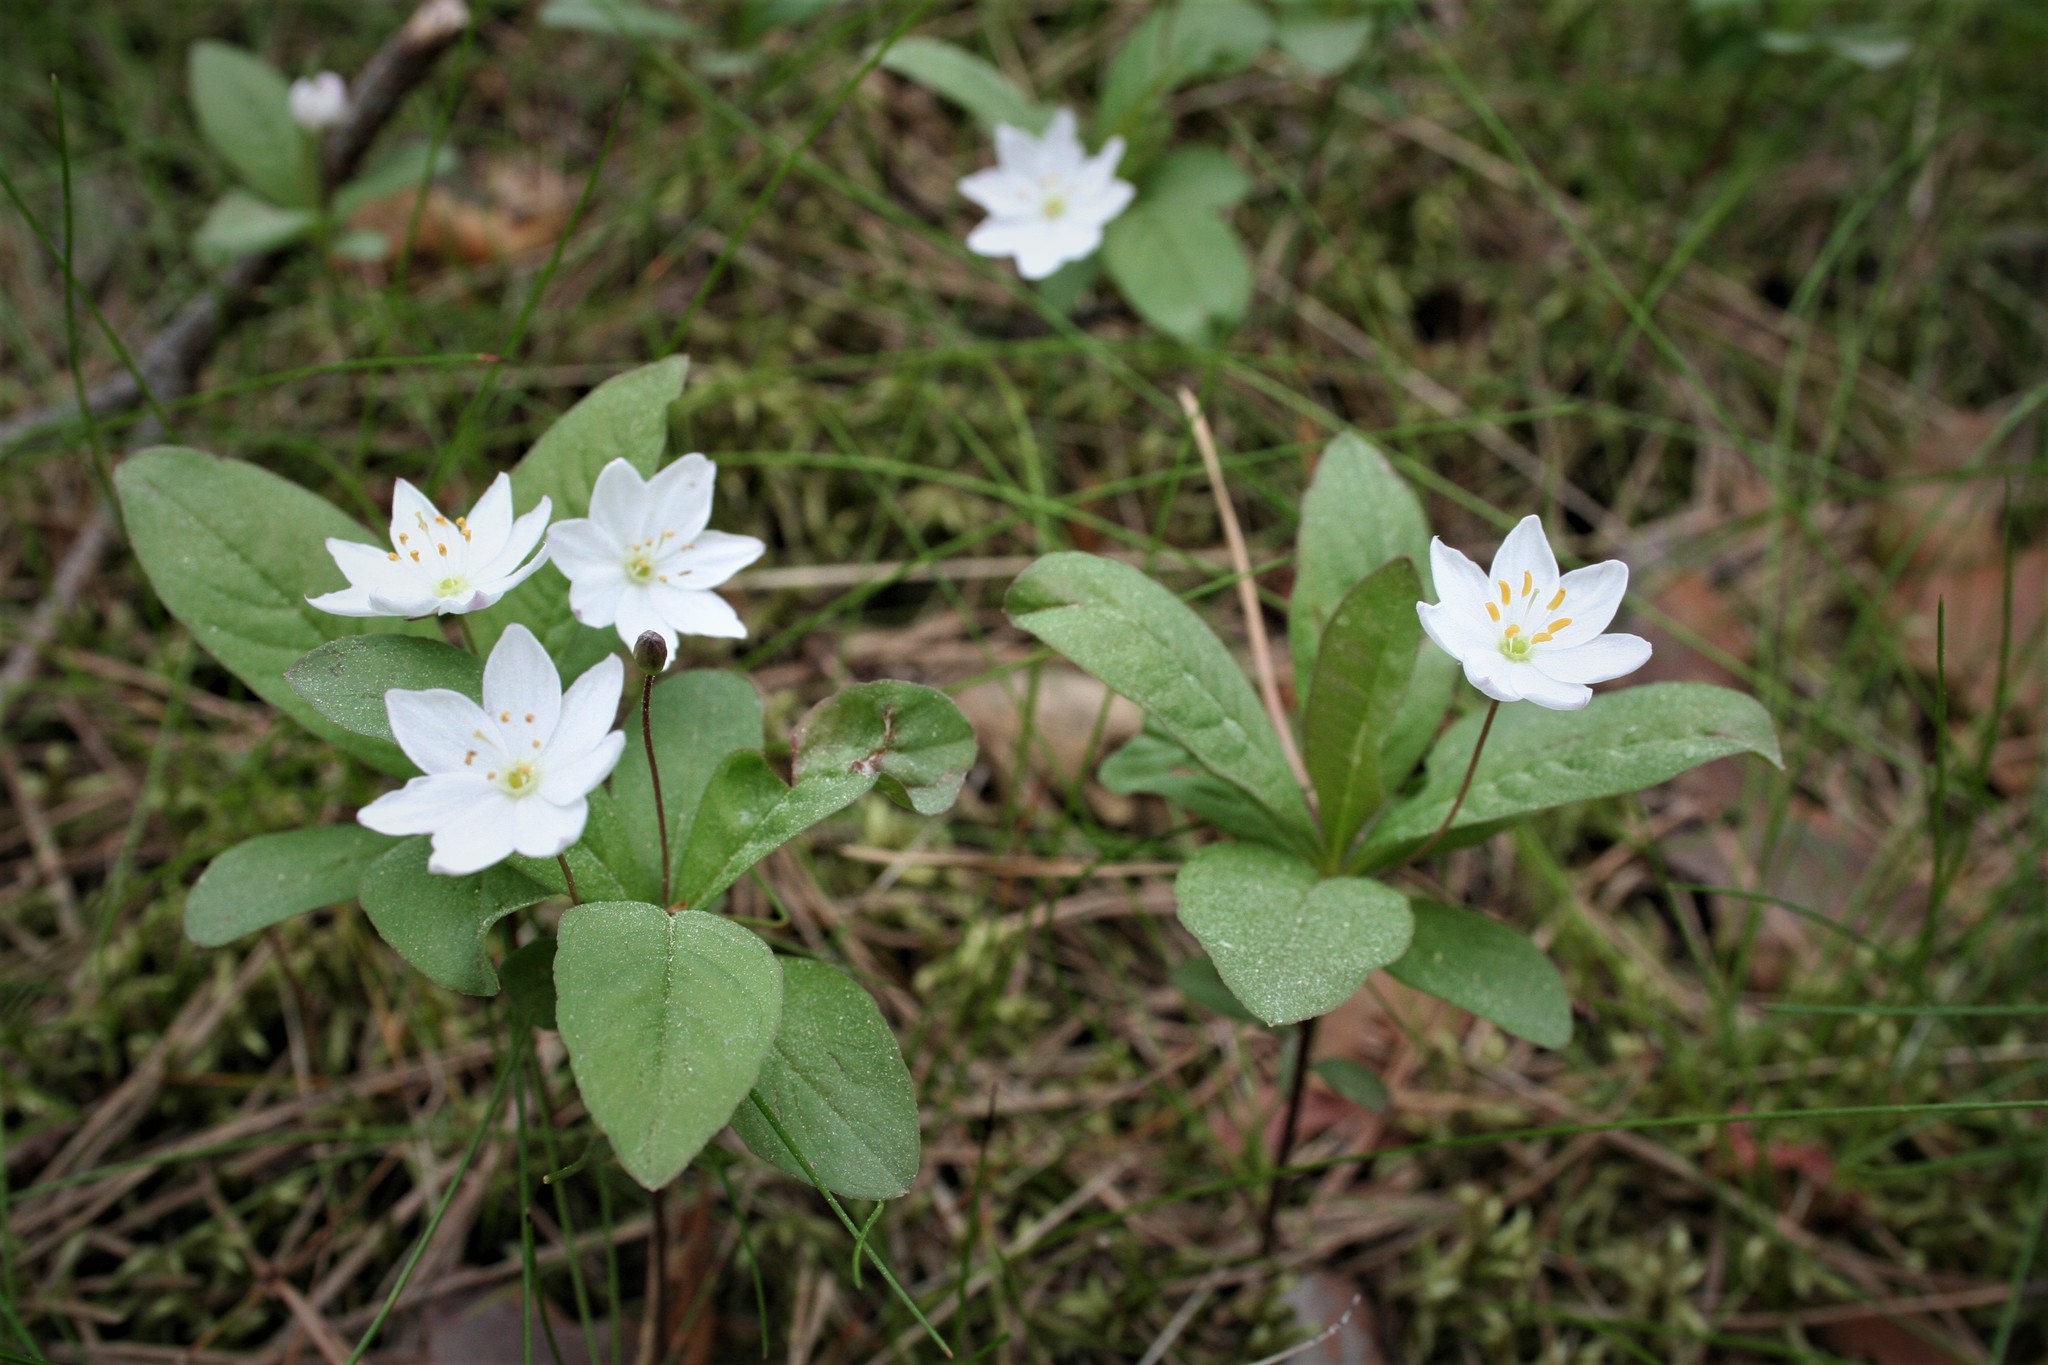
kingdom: Plantae
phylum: Tracheophyta
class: Magnoliopsida
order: Ericales
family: Primulaceae
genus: Lysimachia
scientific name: Lysimachia europaea
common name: Arctic starflower
